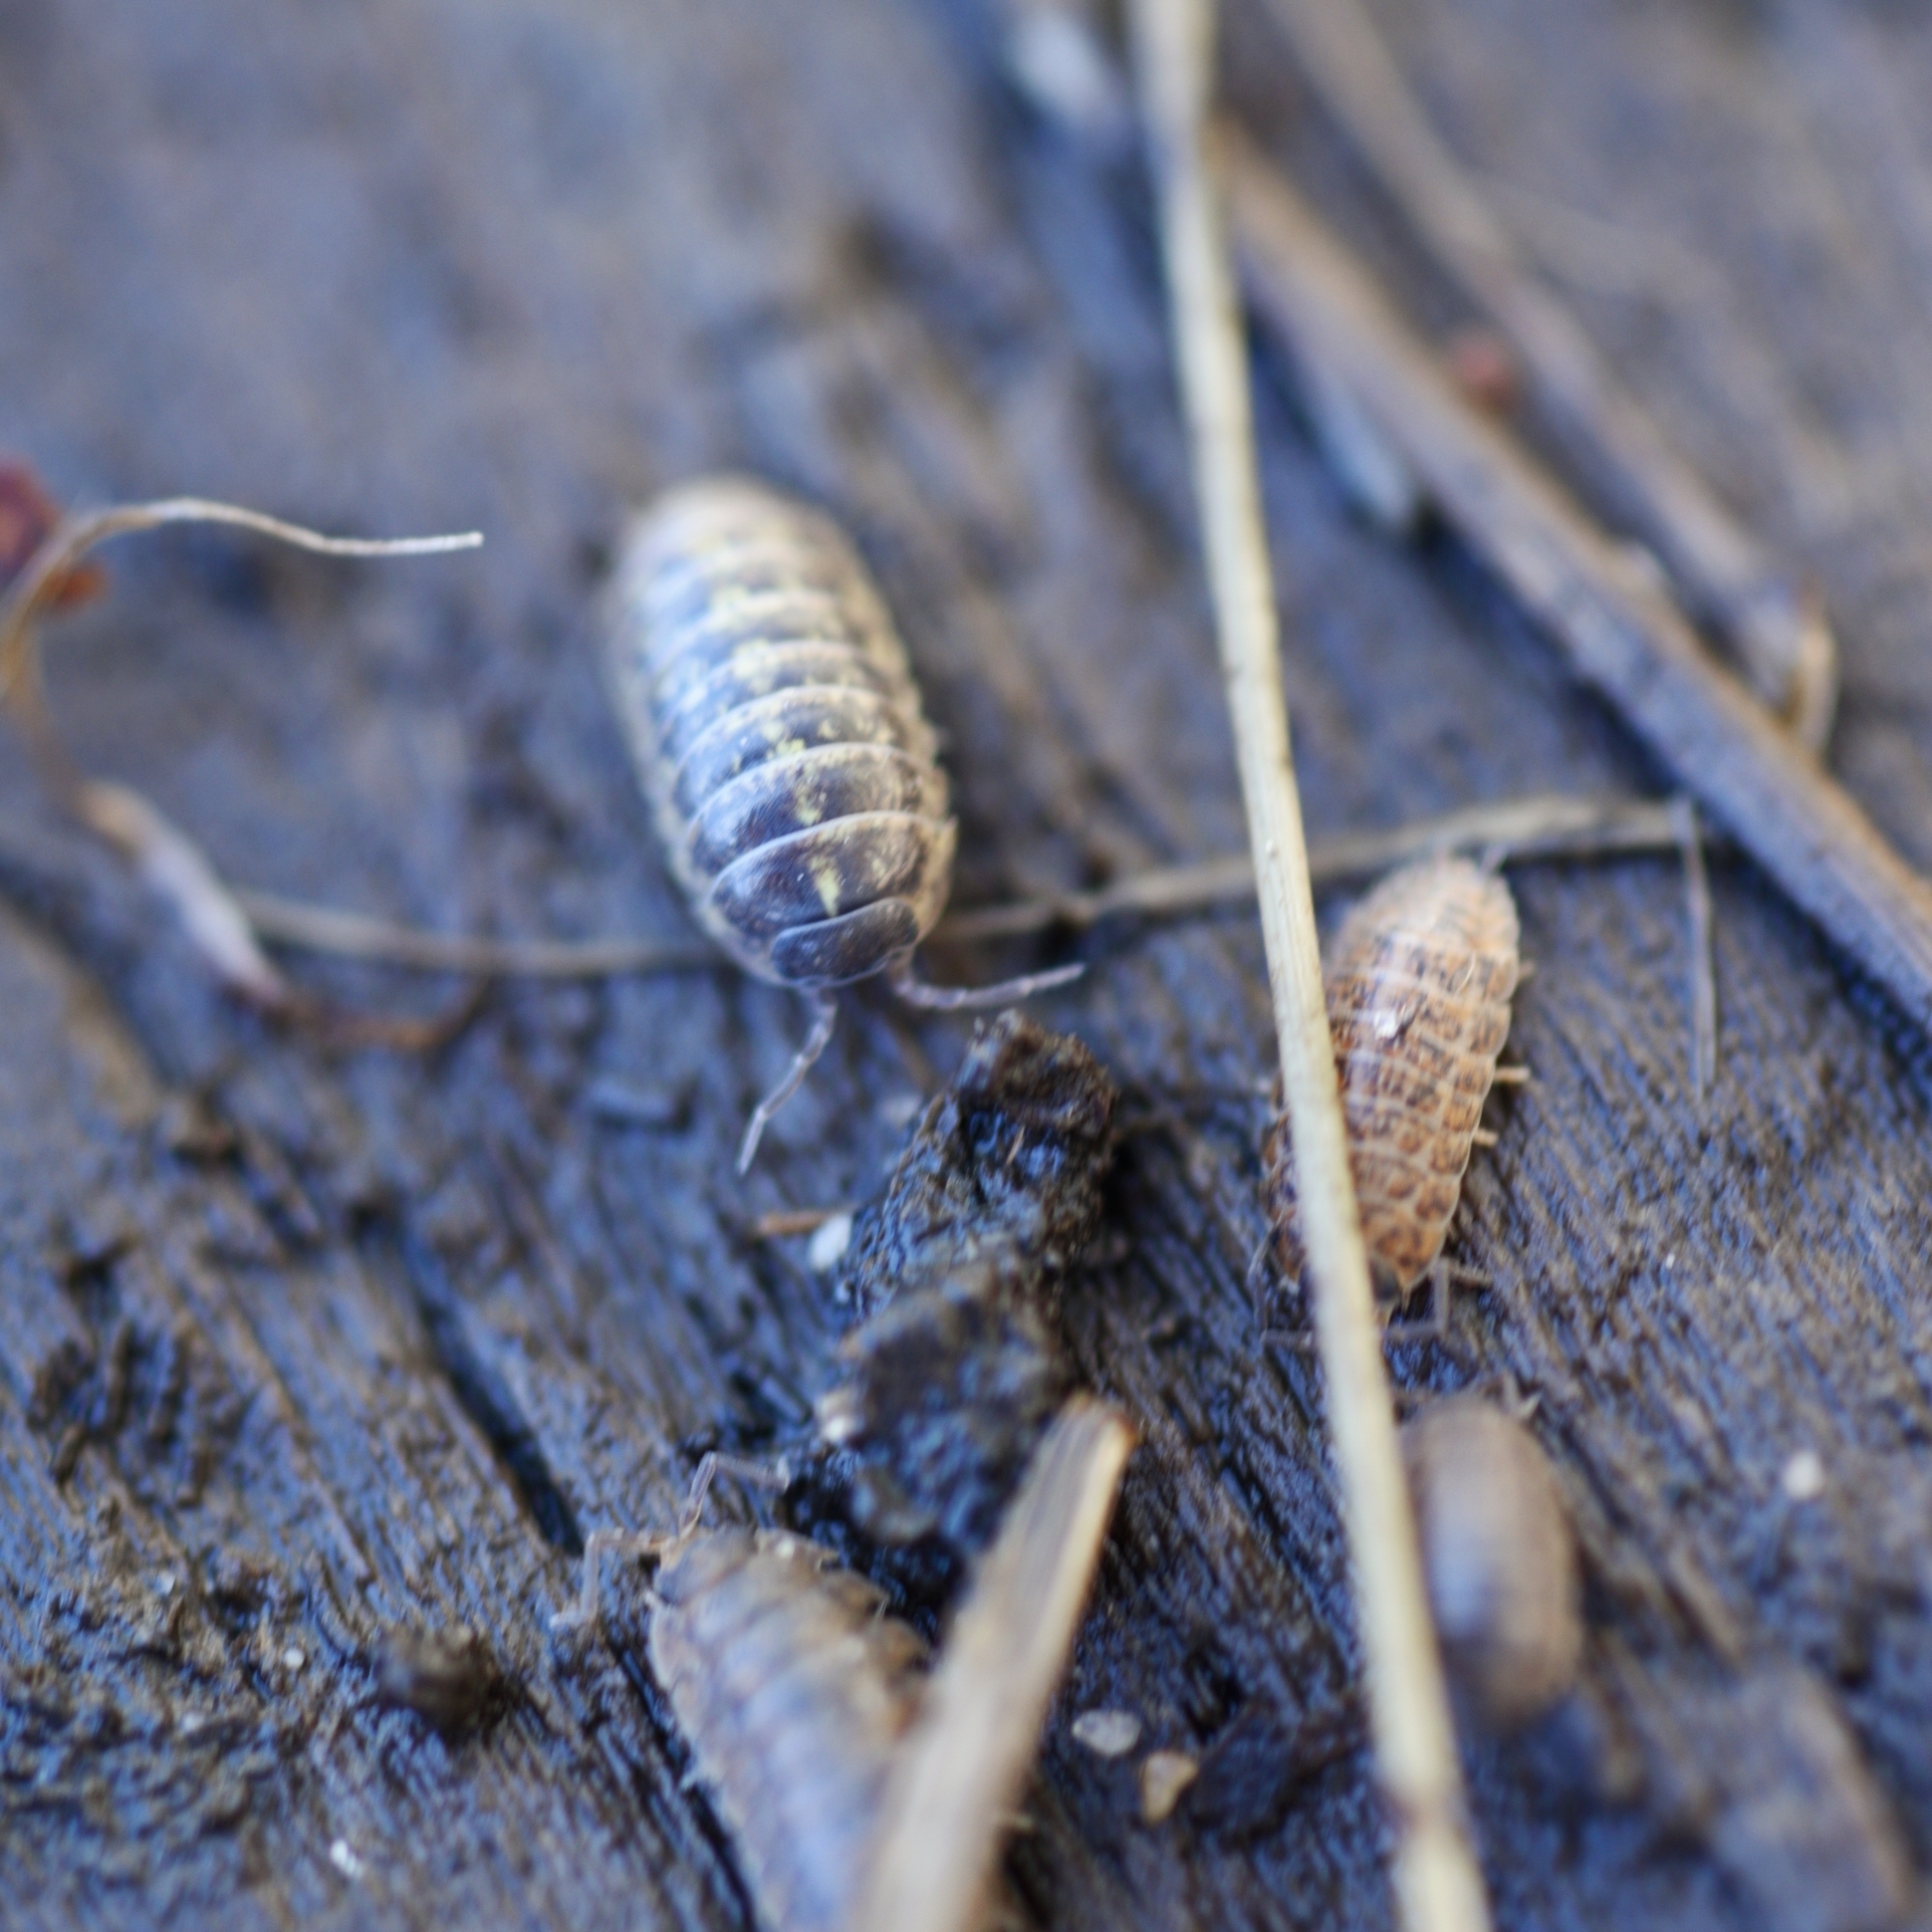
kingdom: Animalia
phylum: Arthropoda
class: Malacostraca
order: Isopoda
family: Armadillidiidae
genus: Armadillidium
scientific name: Armadillidium vulgare
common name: Common pill woodlouse
